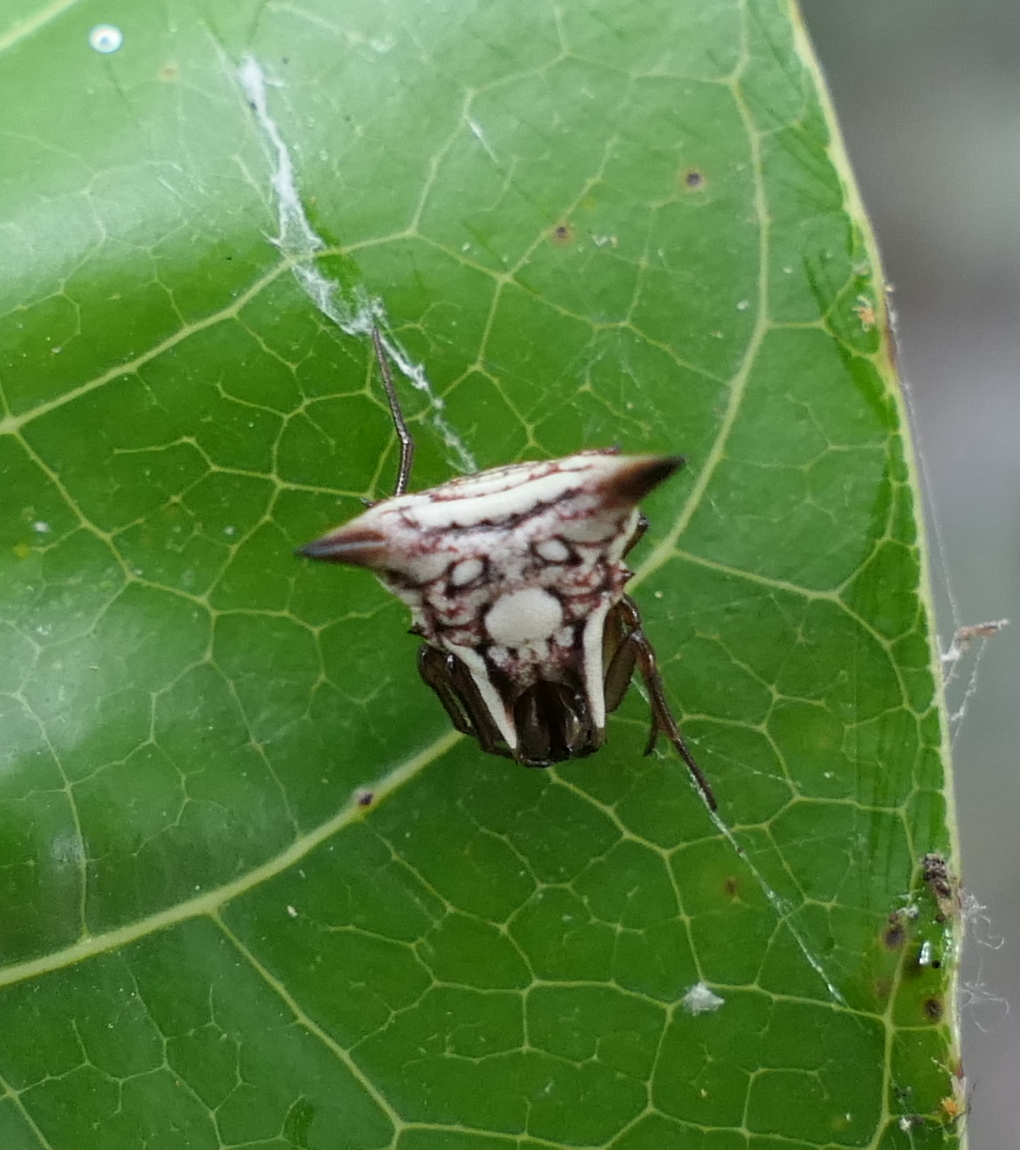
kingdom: Animalia
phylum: Arthropoda
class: Arachnida
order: Araneae
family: Araneidae
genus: Micrathena
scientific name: Micrathena evansi
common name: Orb weavers
